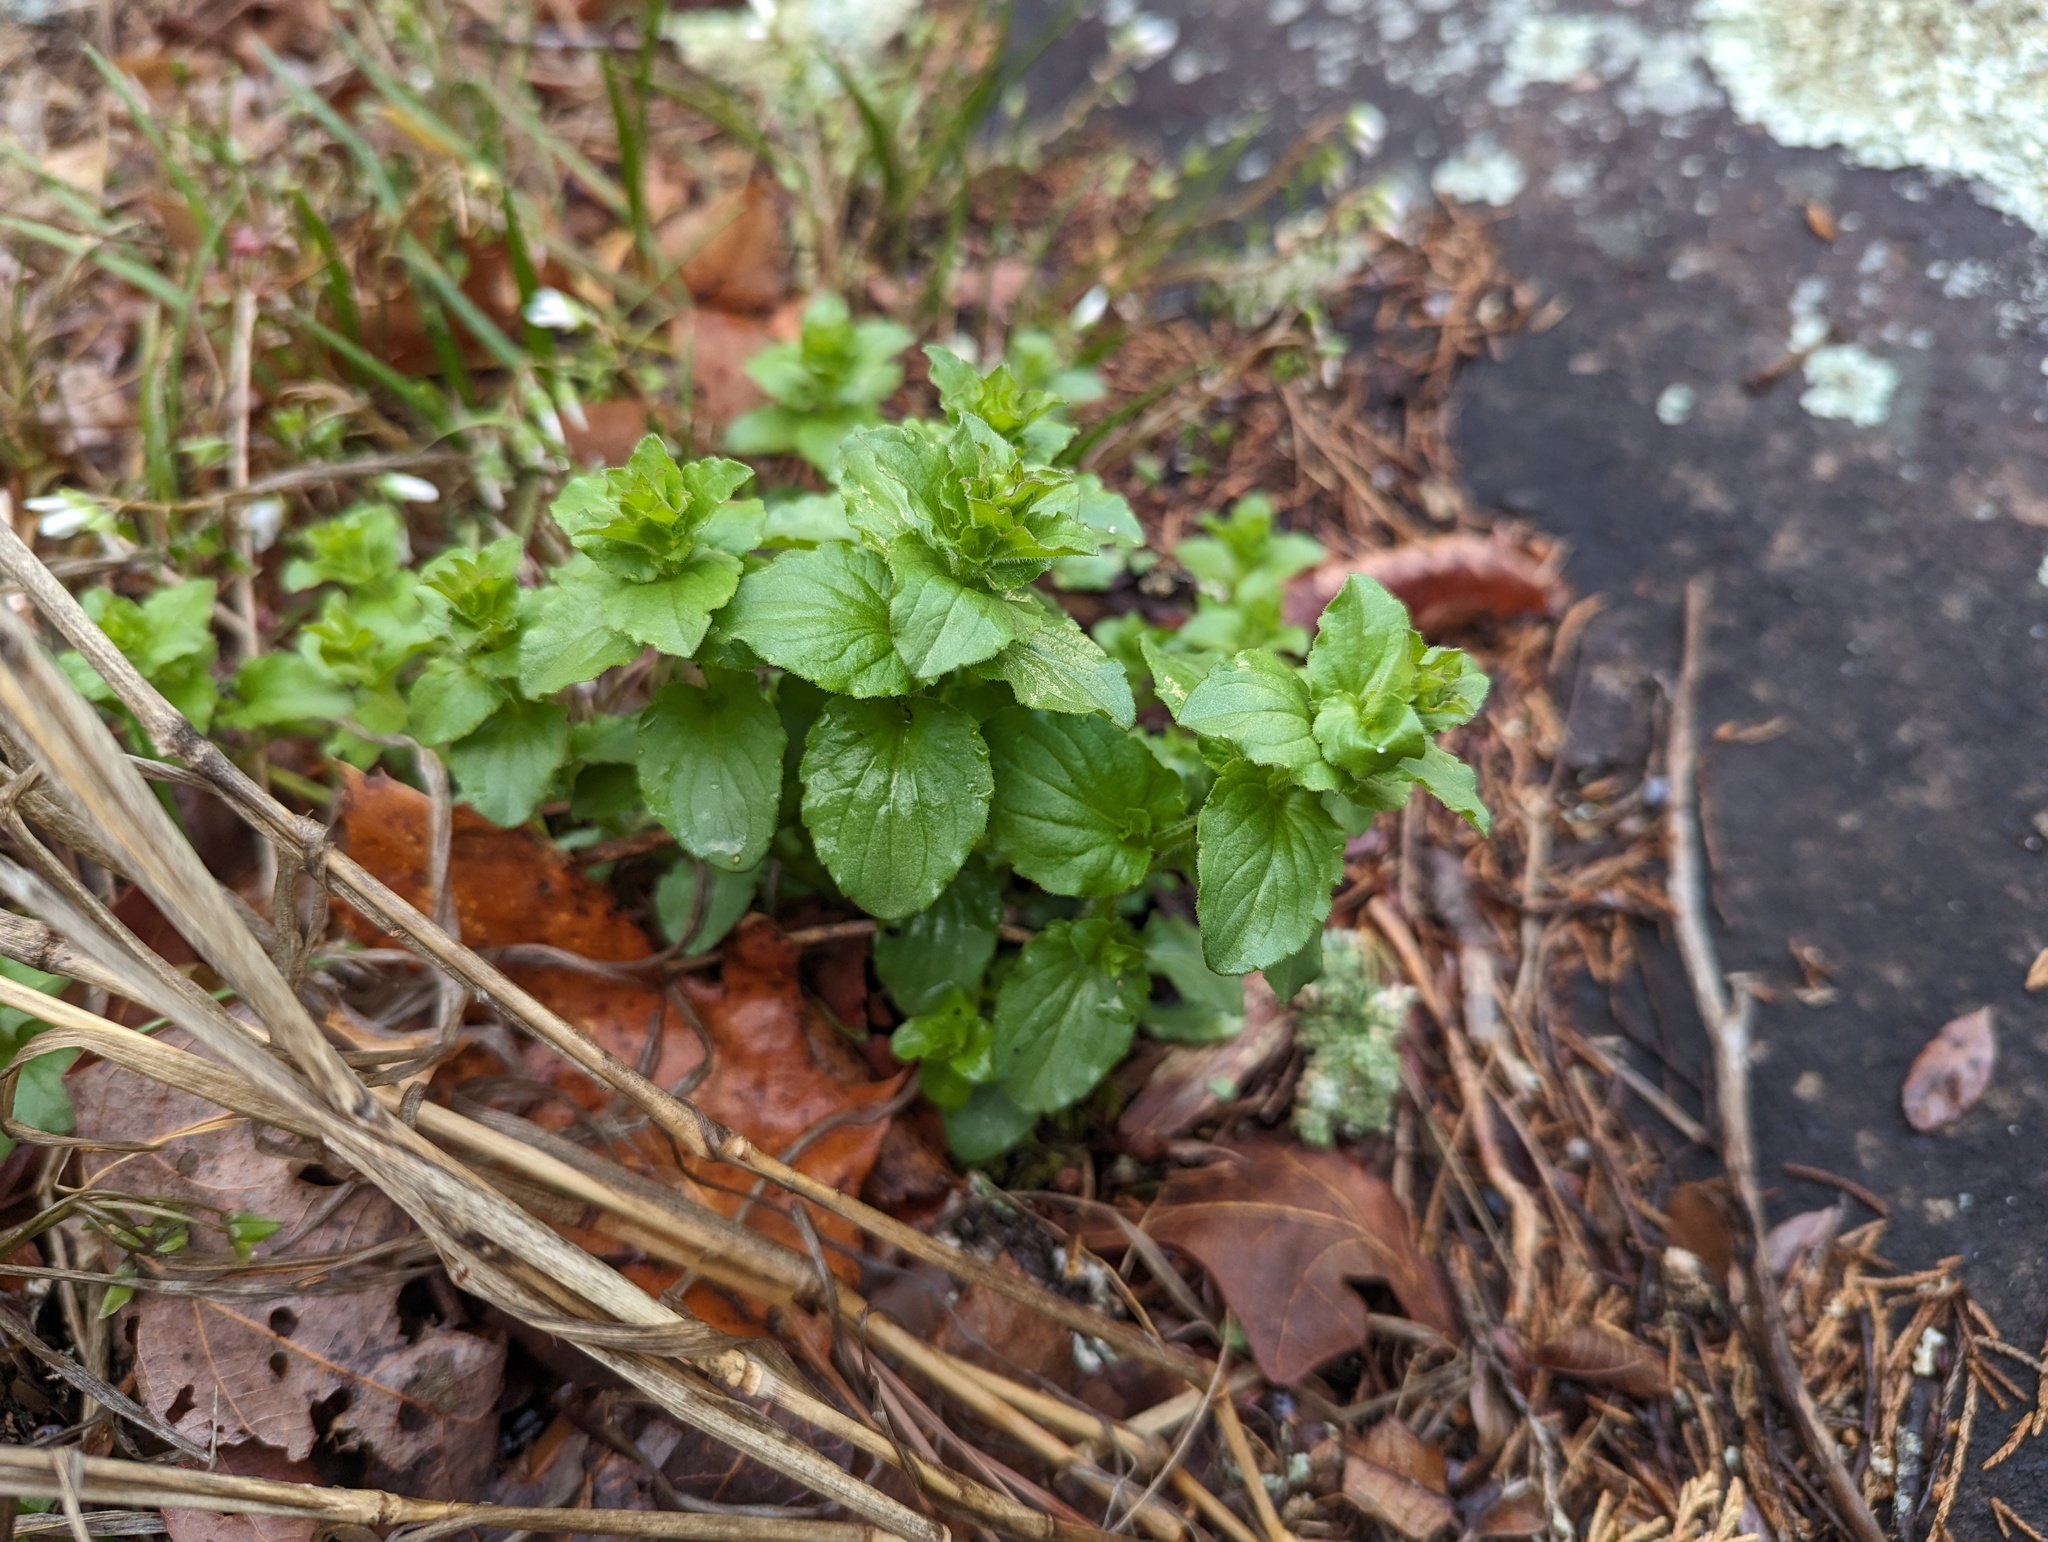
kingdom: Plantae
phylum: Tracheophyta
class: Magnoliopsida
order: Asterales
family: Campanulaceae
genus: Triodanis
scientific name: Triodanis perfoliata
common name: Clasping venus' looking-glass
